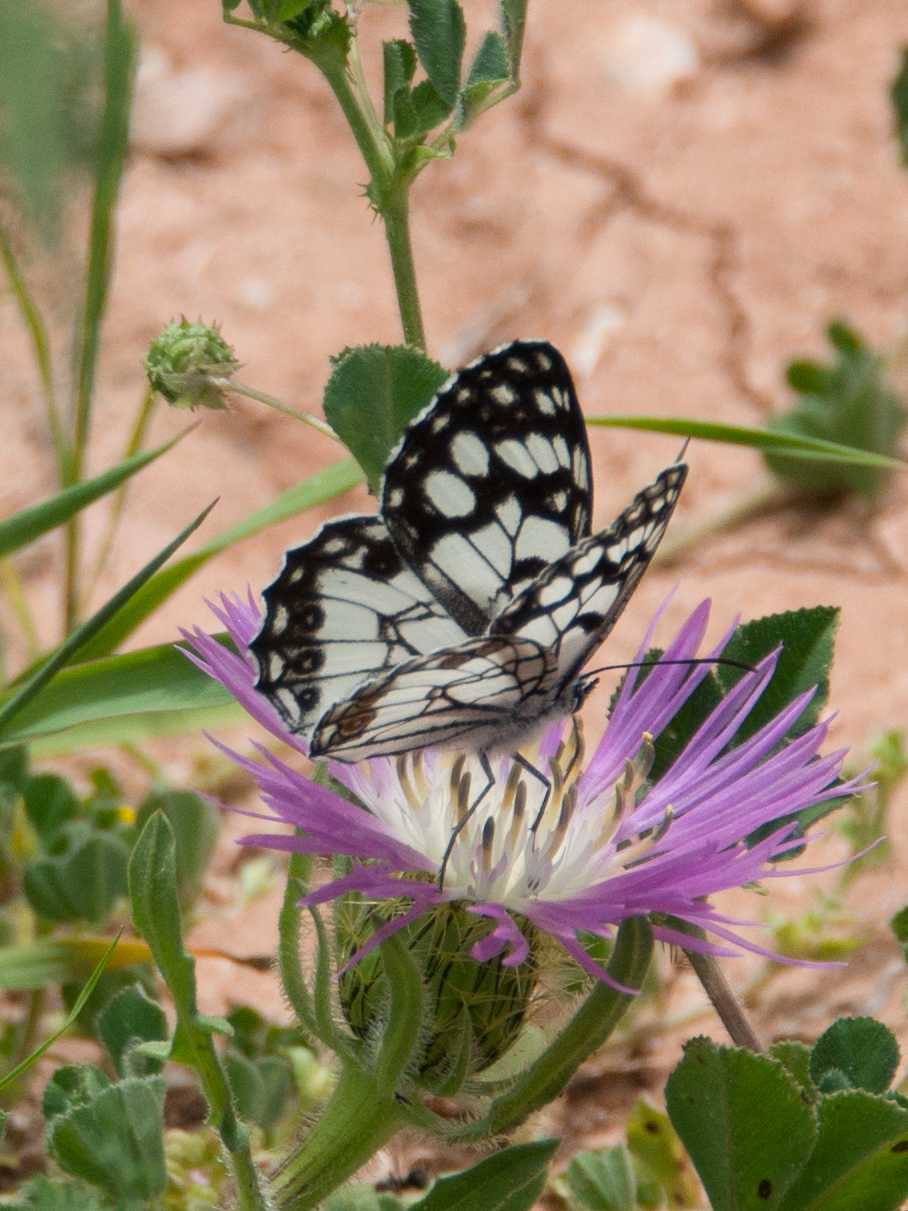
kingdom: Animalia
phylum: Arthropoda
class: Insecta
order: Lepidoptera
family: Nymphalidae
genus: Melanargia
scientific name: Melanargia ines
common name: Spanish marbled white
